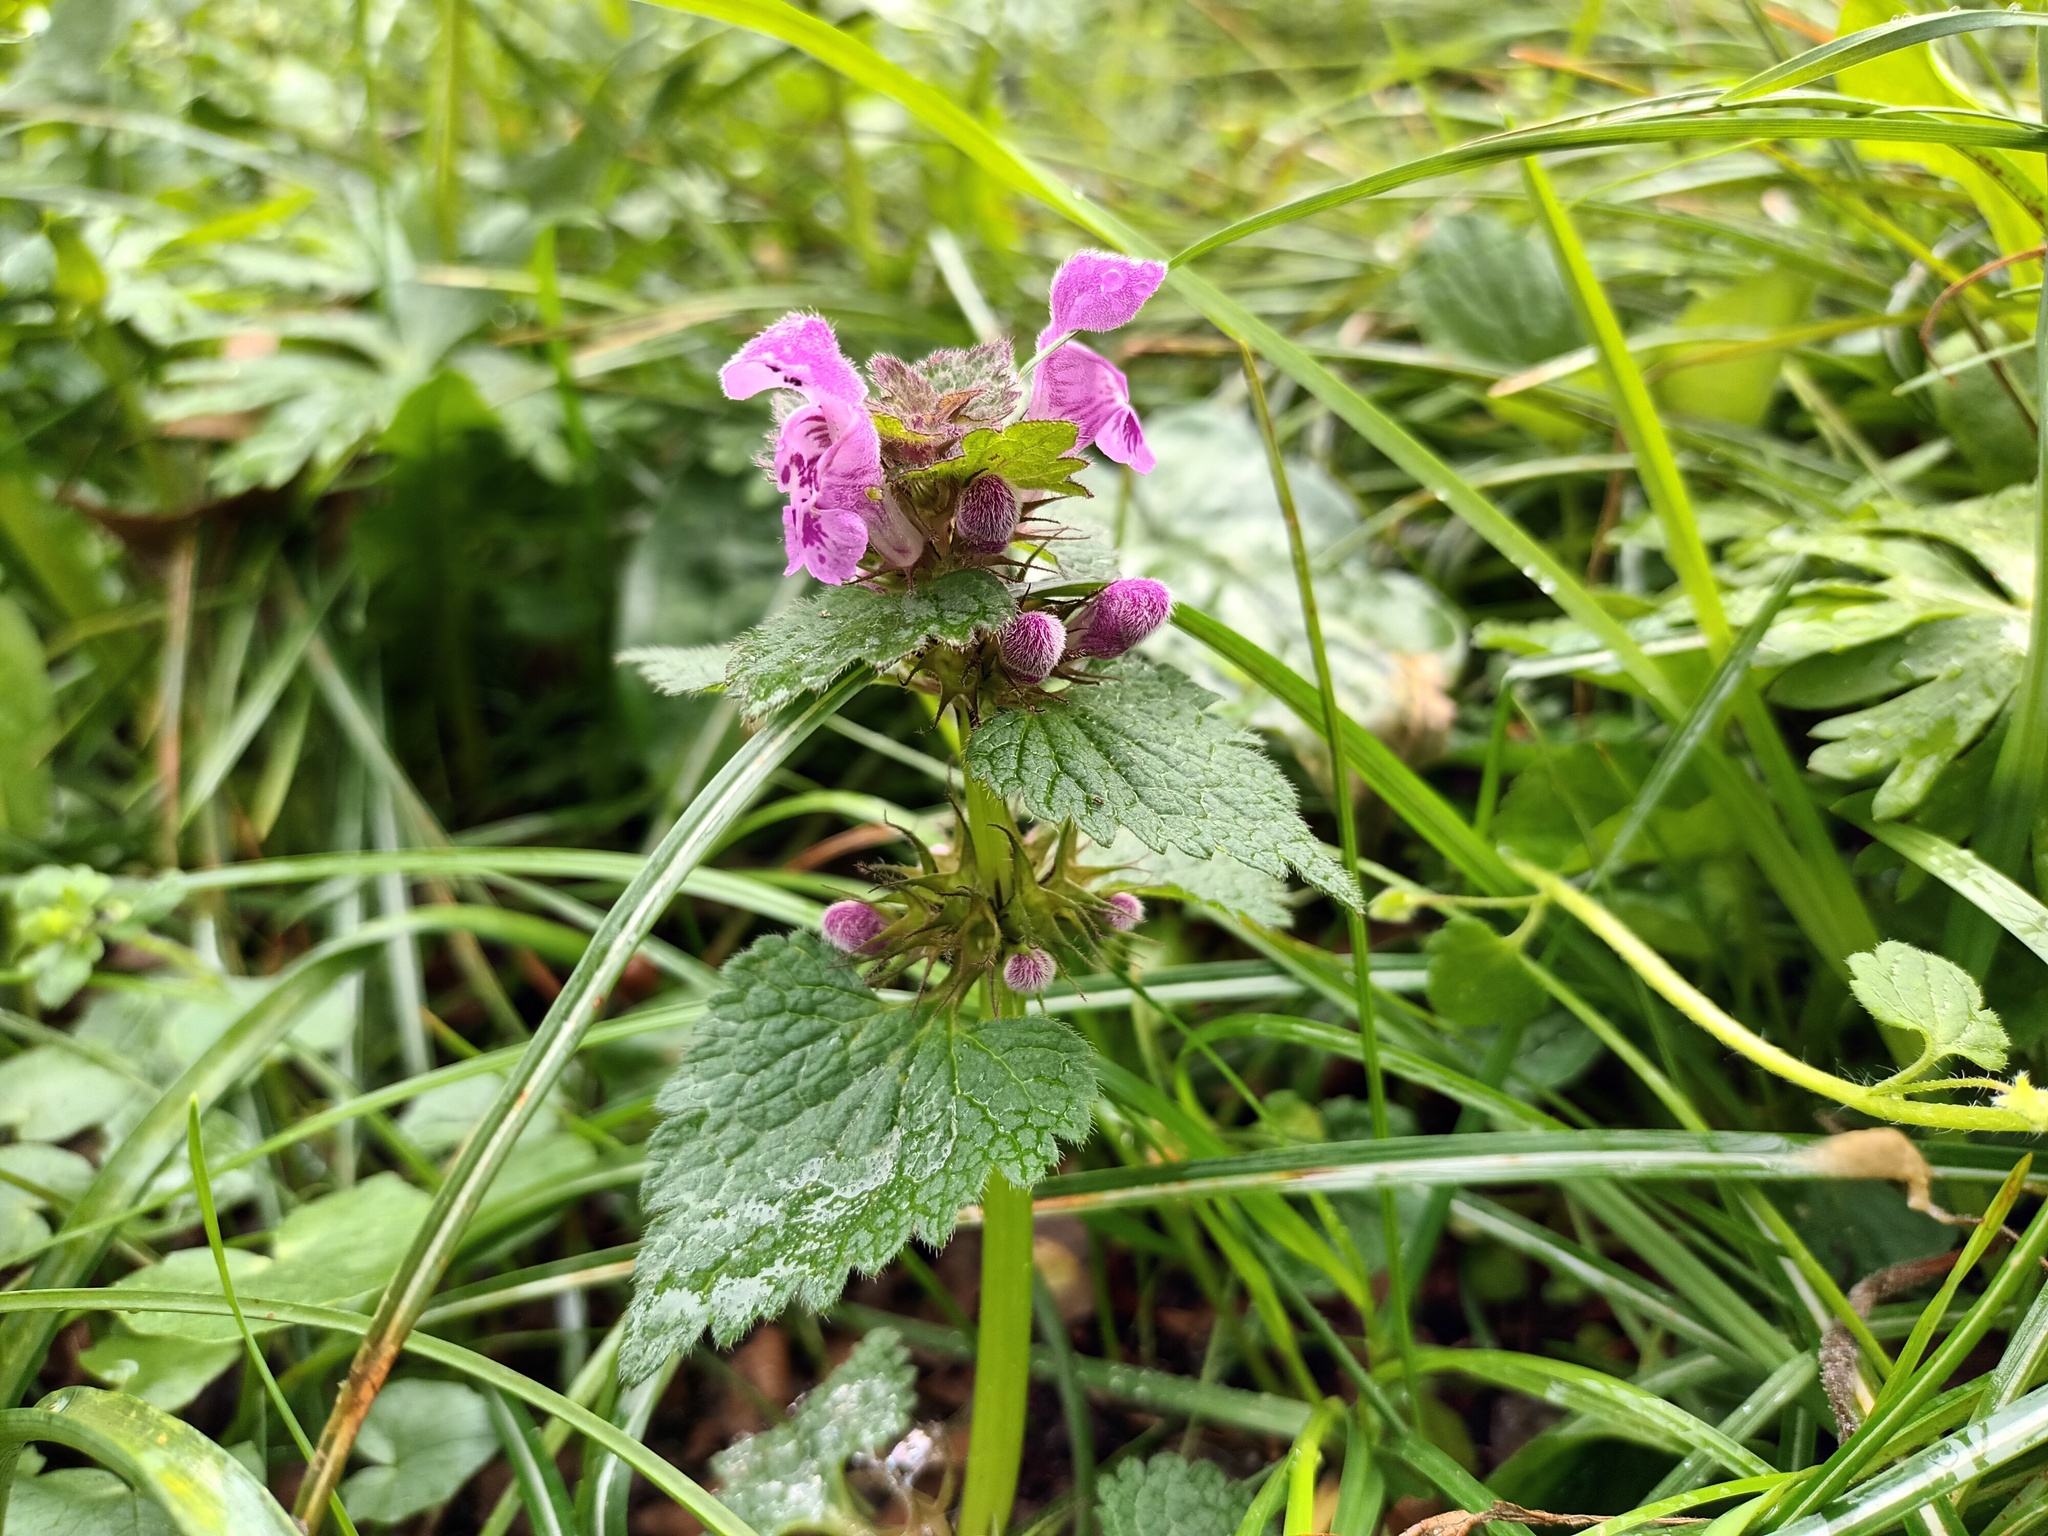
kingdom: Plantae
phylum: Tracheophyta
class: Magnoliopsida
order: Lamiales
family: Lamiaceae
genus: Lamium
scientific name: Lamium maculatum
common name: Spotted dead-nettle
